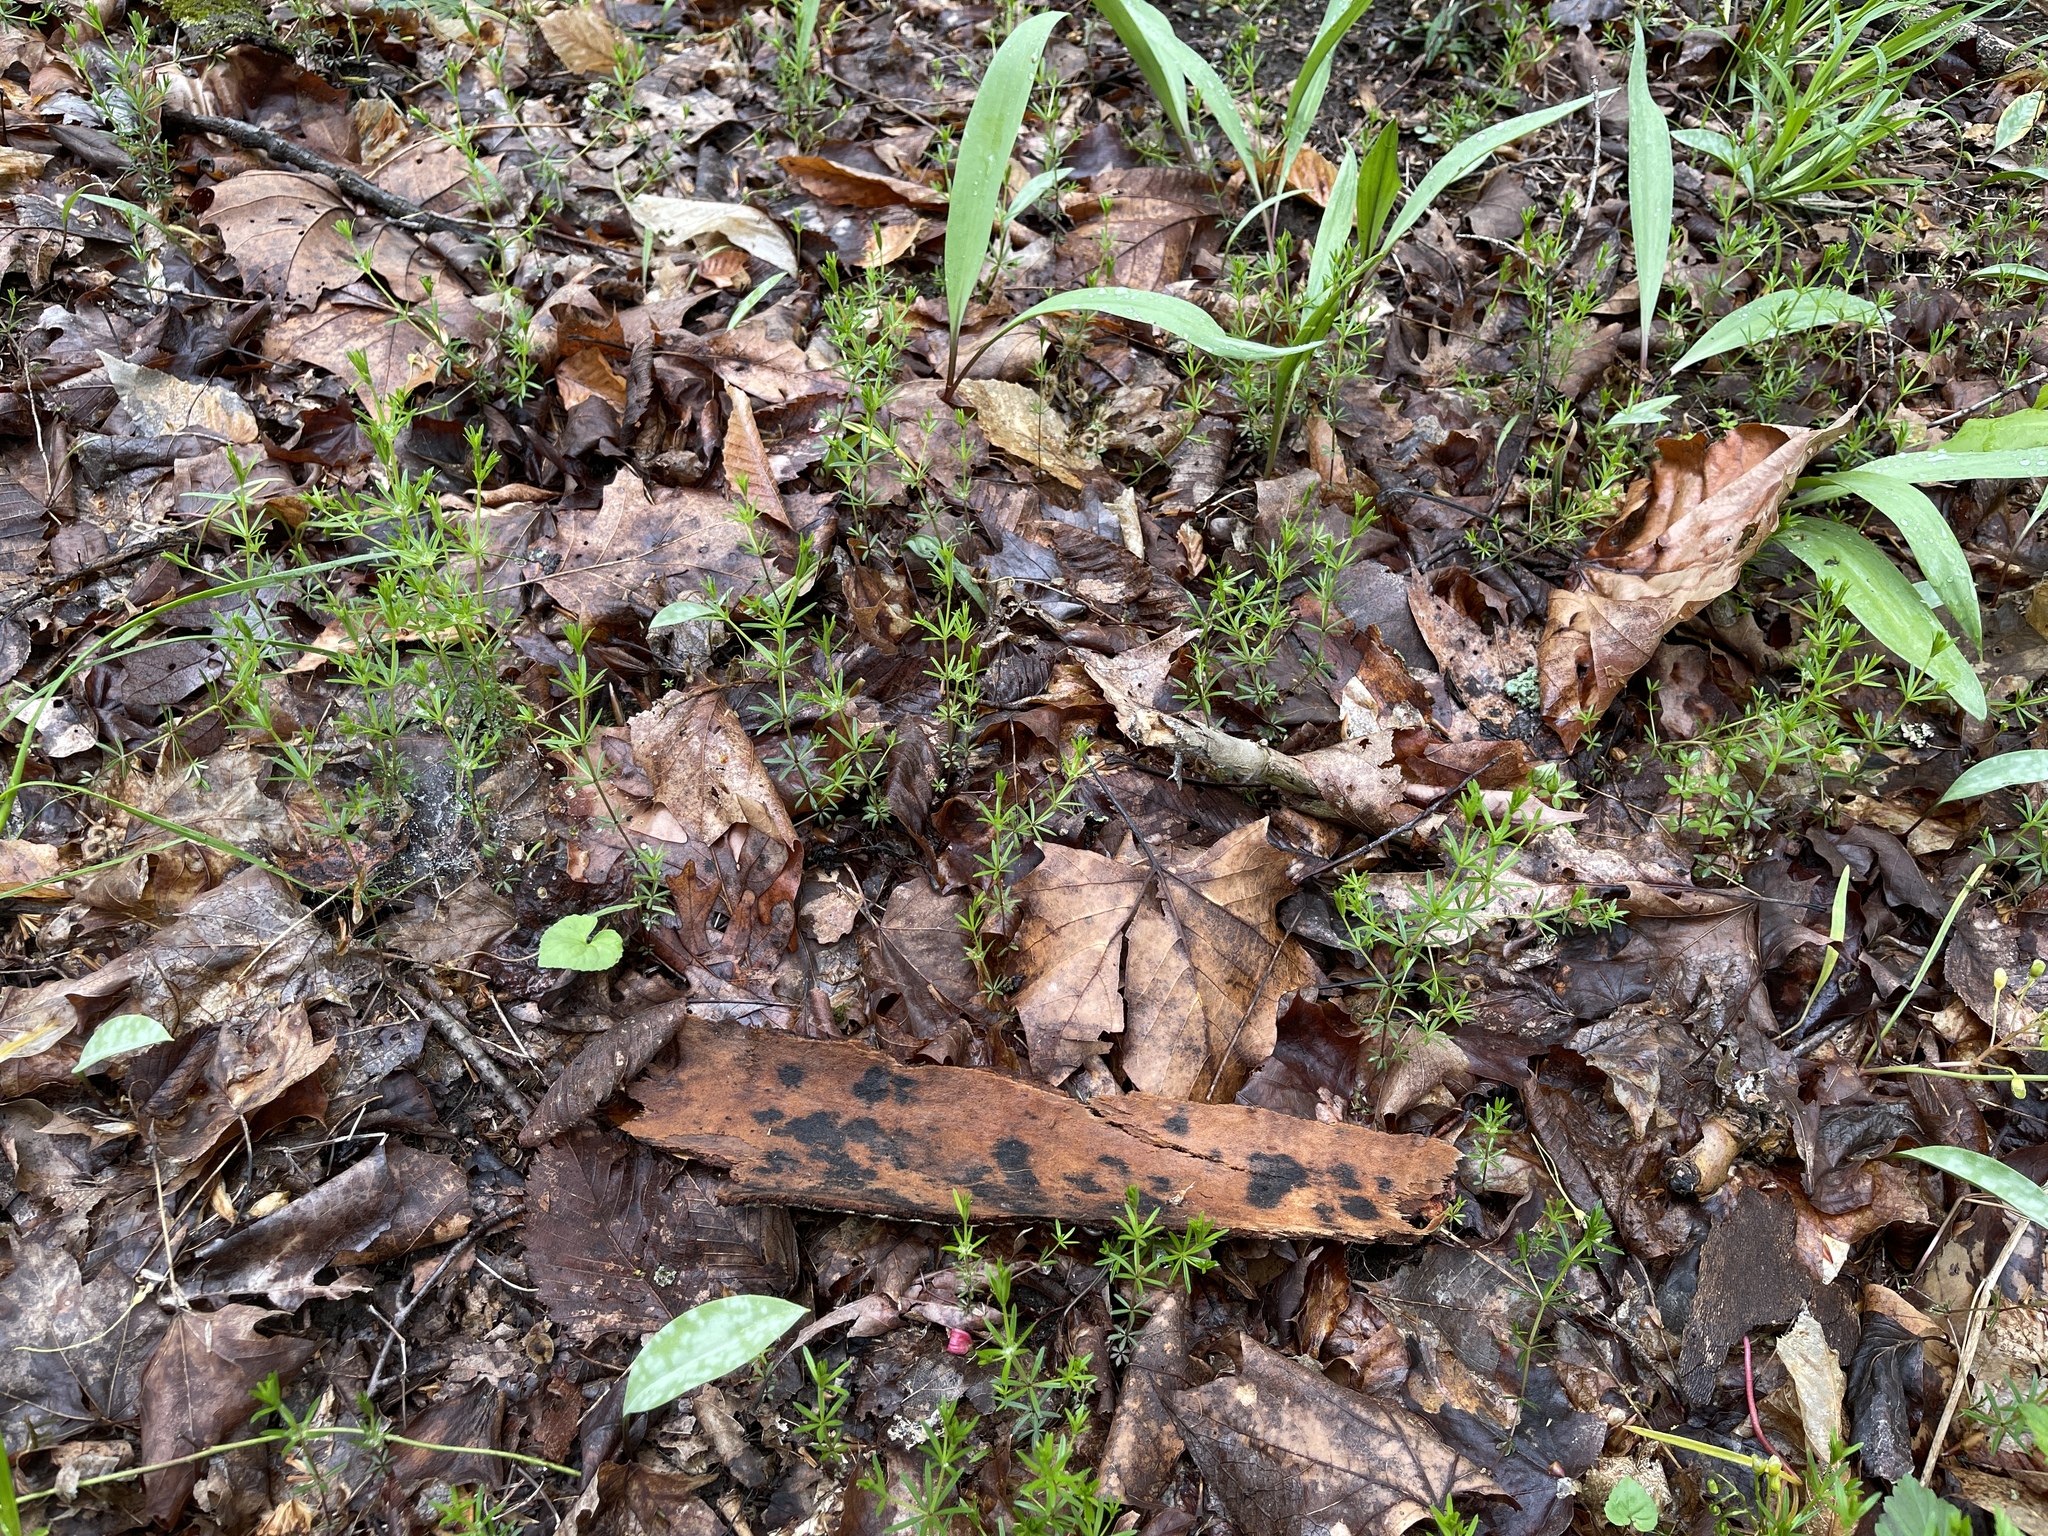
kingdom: Plantae
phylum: Tracheophyta
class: Magnoliopsida
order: Gentianales
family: Rubiaceae
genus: Galium
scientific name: Galium concinnum
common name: Shining bedstraw
